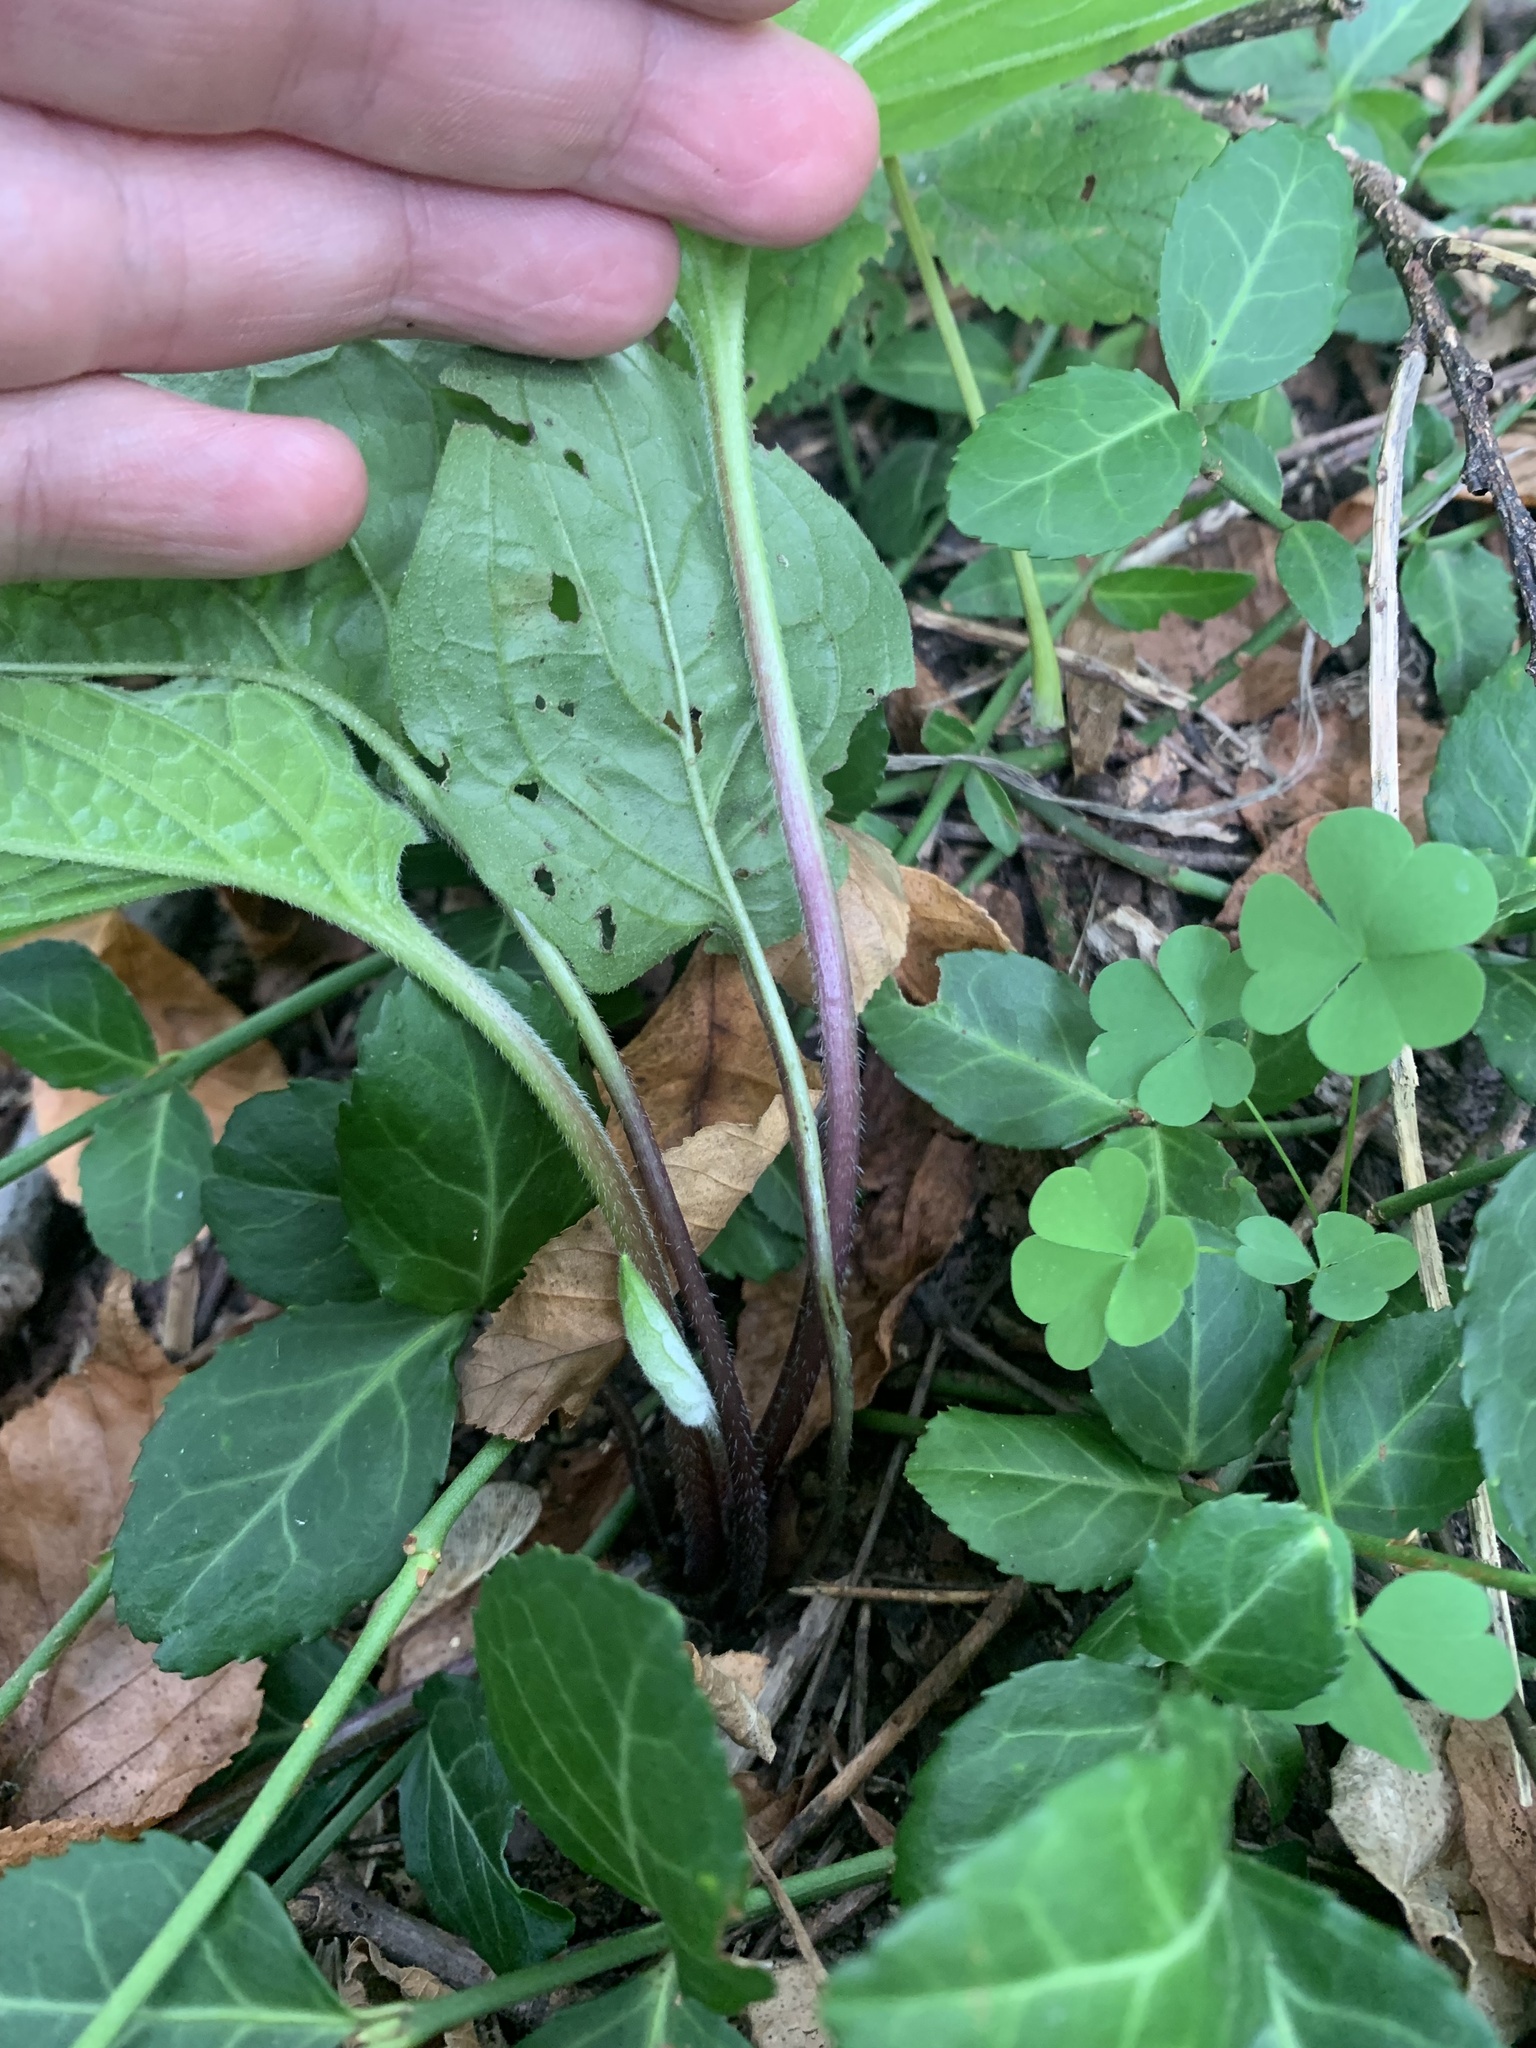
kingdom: Plantae
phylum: Tracheophyta
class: Magnoliopsida
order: Boraginales
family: Boraginaceae
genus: Hackelia
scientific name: Hackelia virginiana
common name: Beggar's-lice
